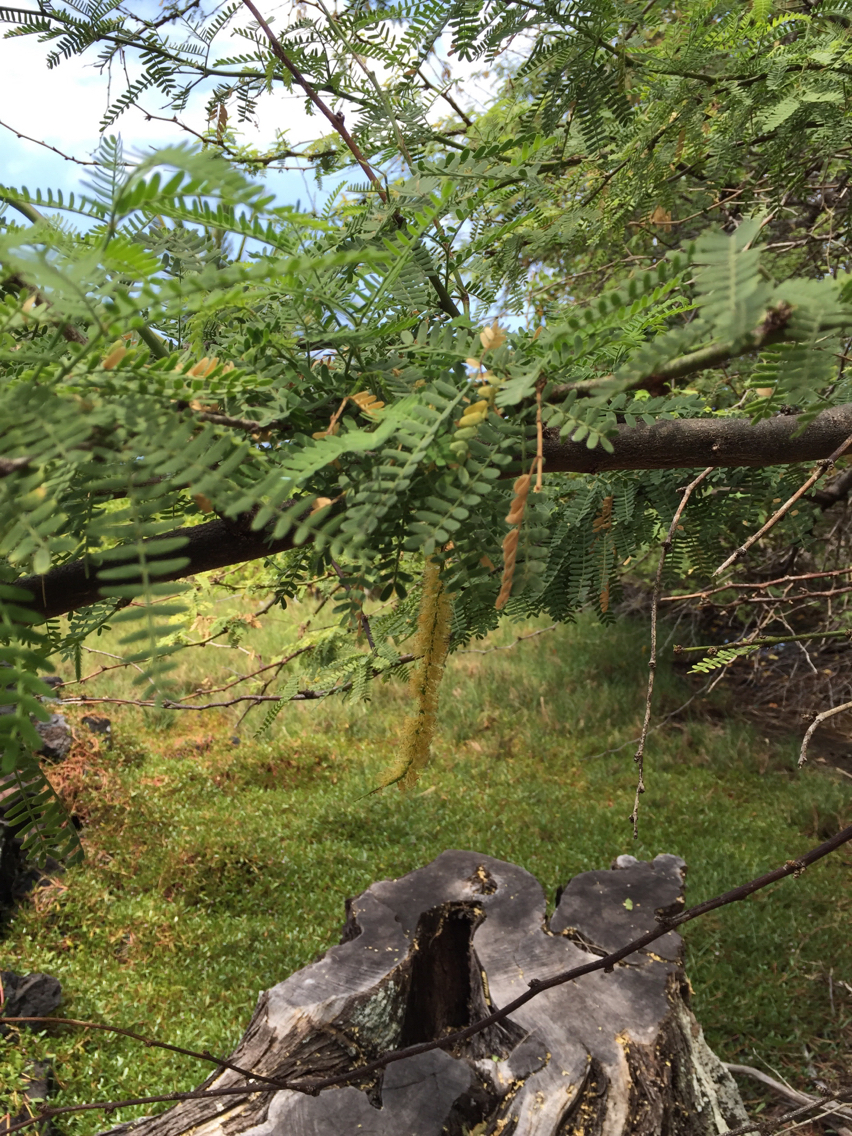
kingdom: Plantae
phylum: Tracheophyta
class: Magnoliopsida
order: Fabales
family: Fabaceae
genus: Prosopis
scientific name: Prosopis pallida
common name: Mesquite
